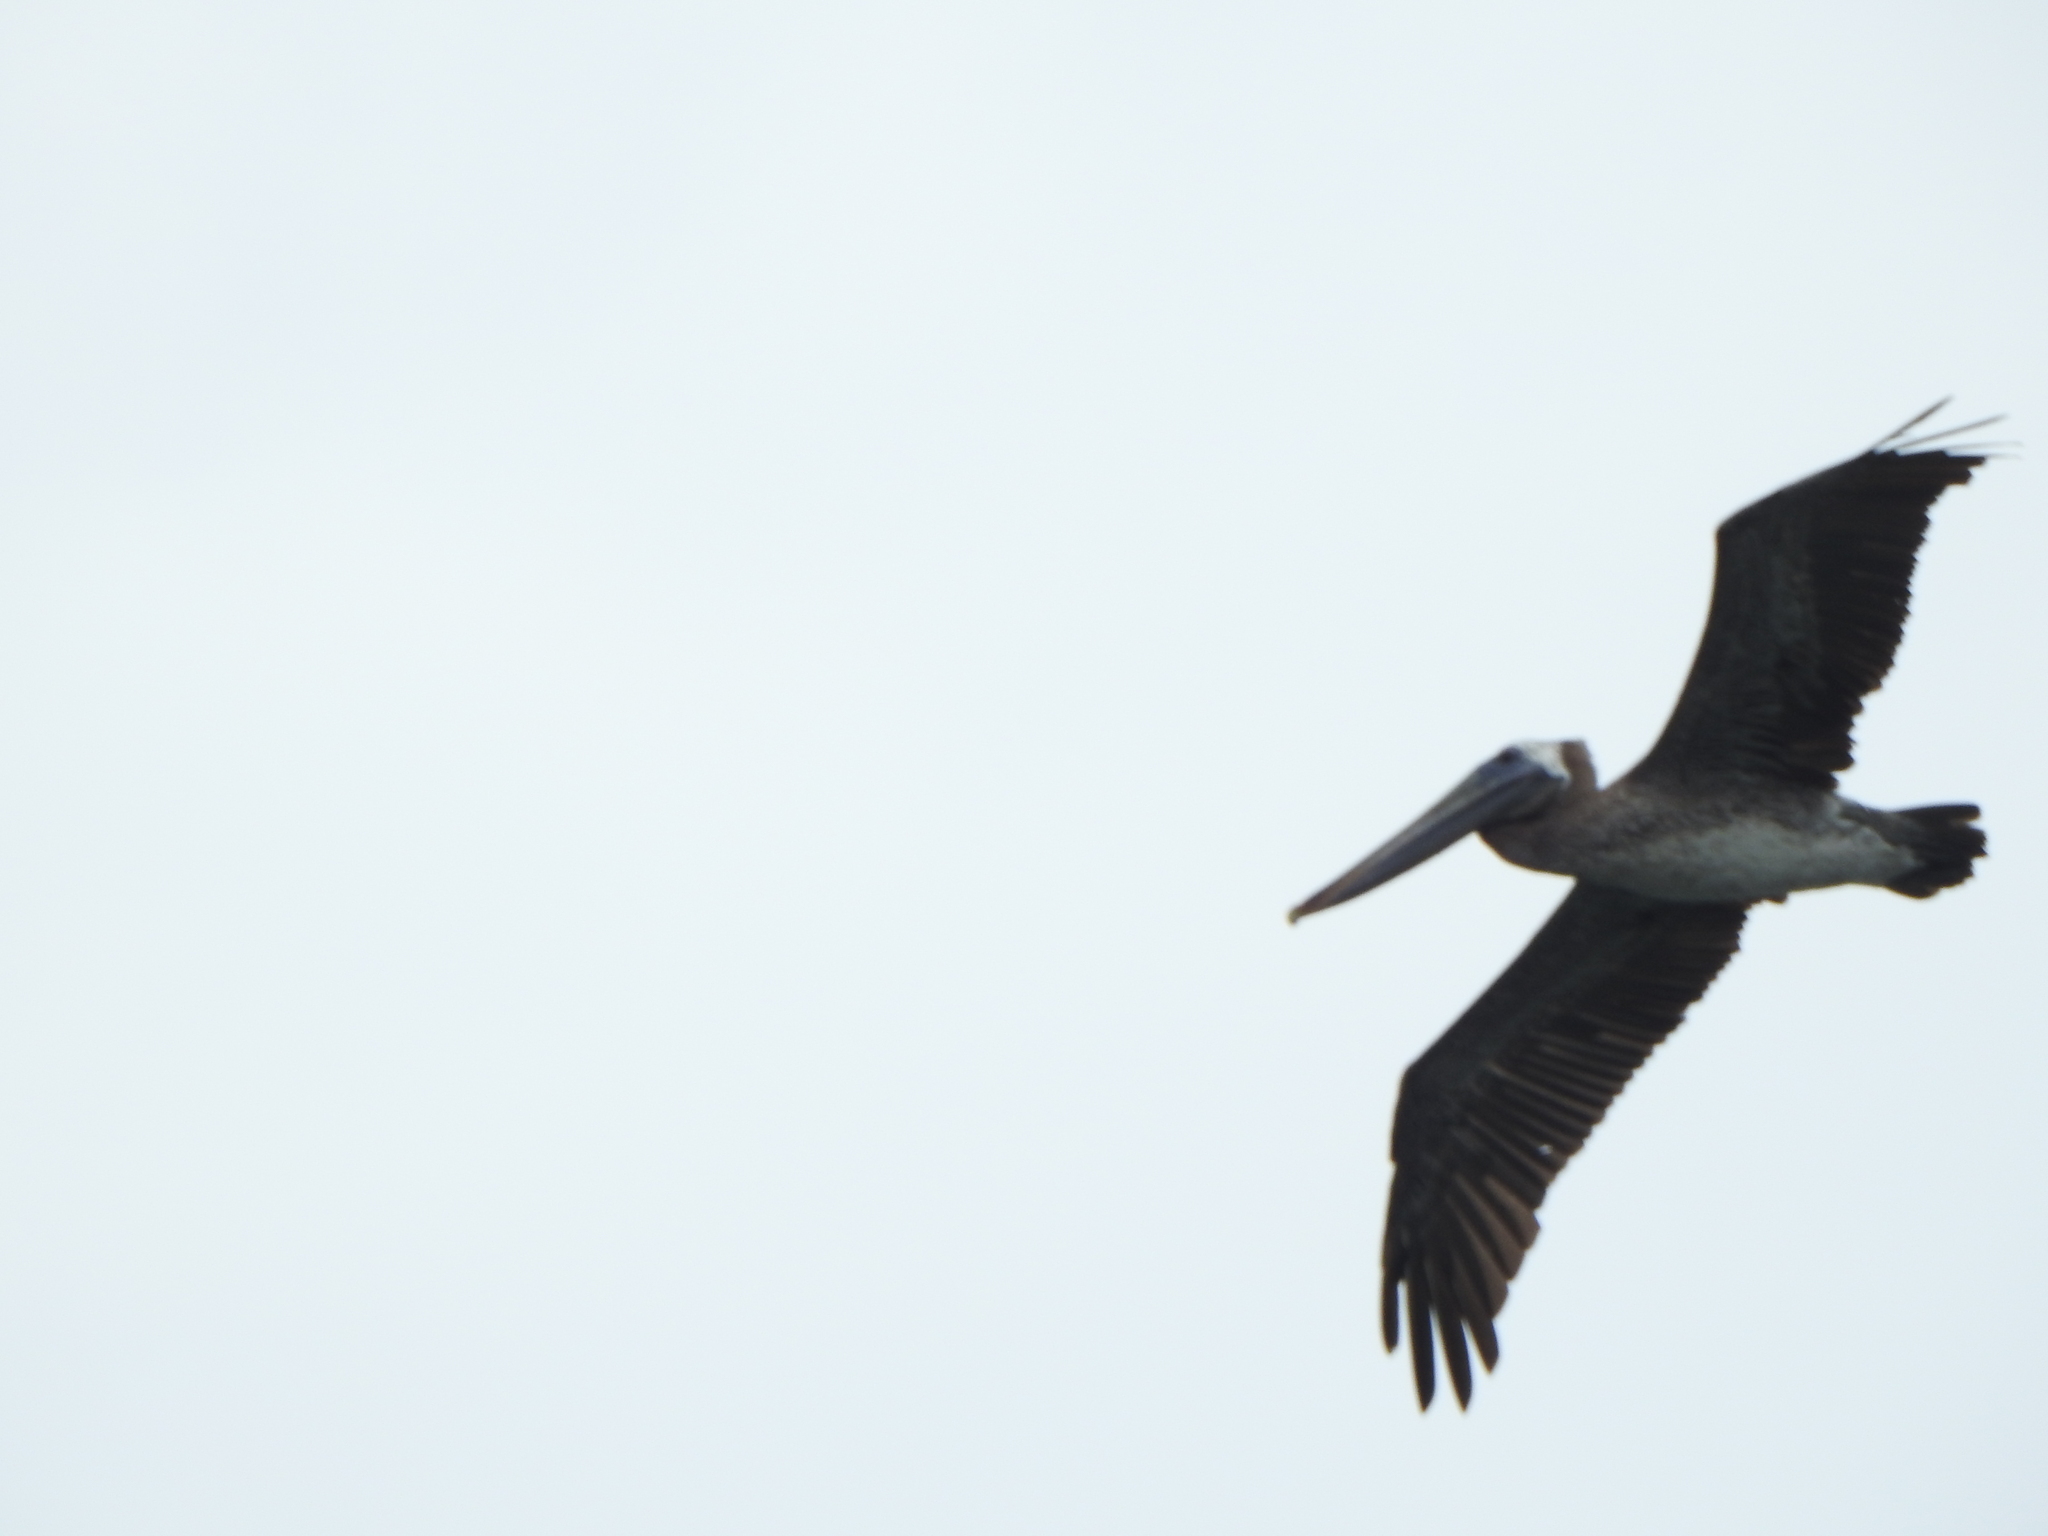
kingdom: Animalia
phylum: Chordata
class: Aves
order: Pelecaniformes
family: Pelecanidae
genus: Pelecanus
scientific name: Pelecanus occidentalis
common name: Brown pelican
